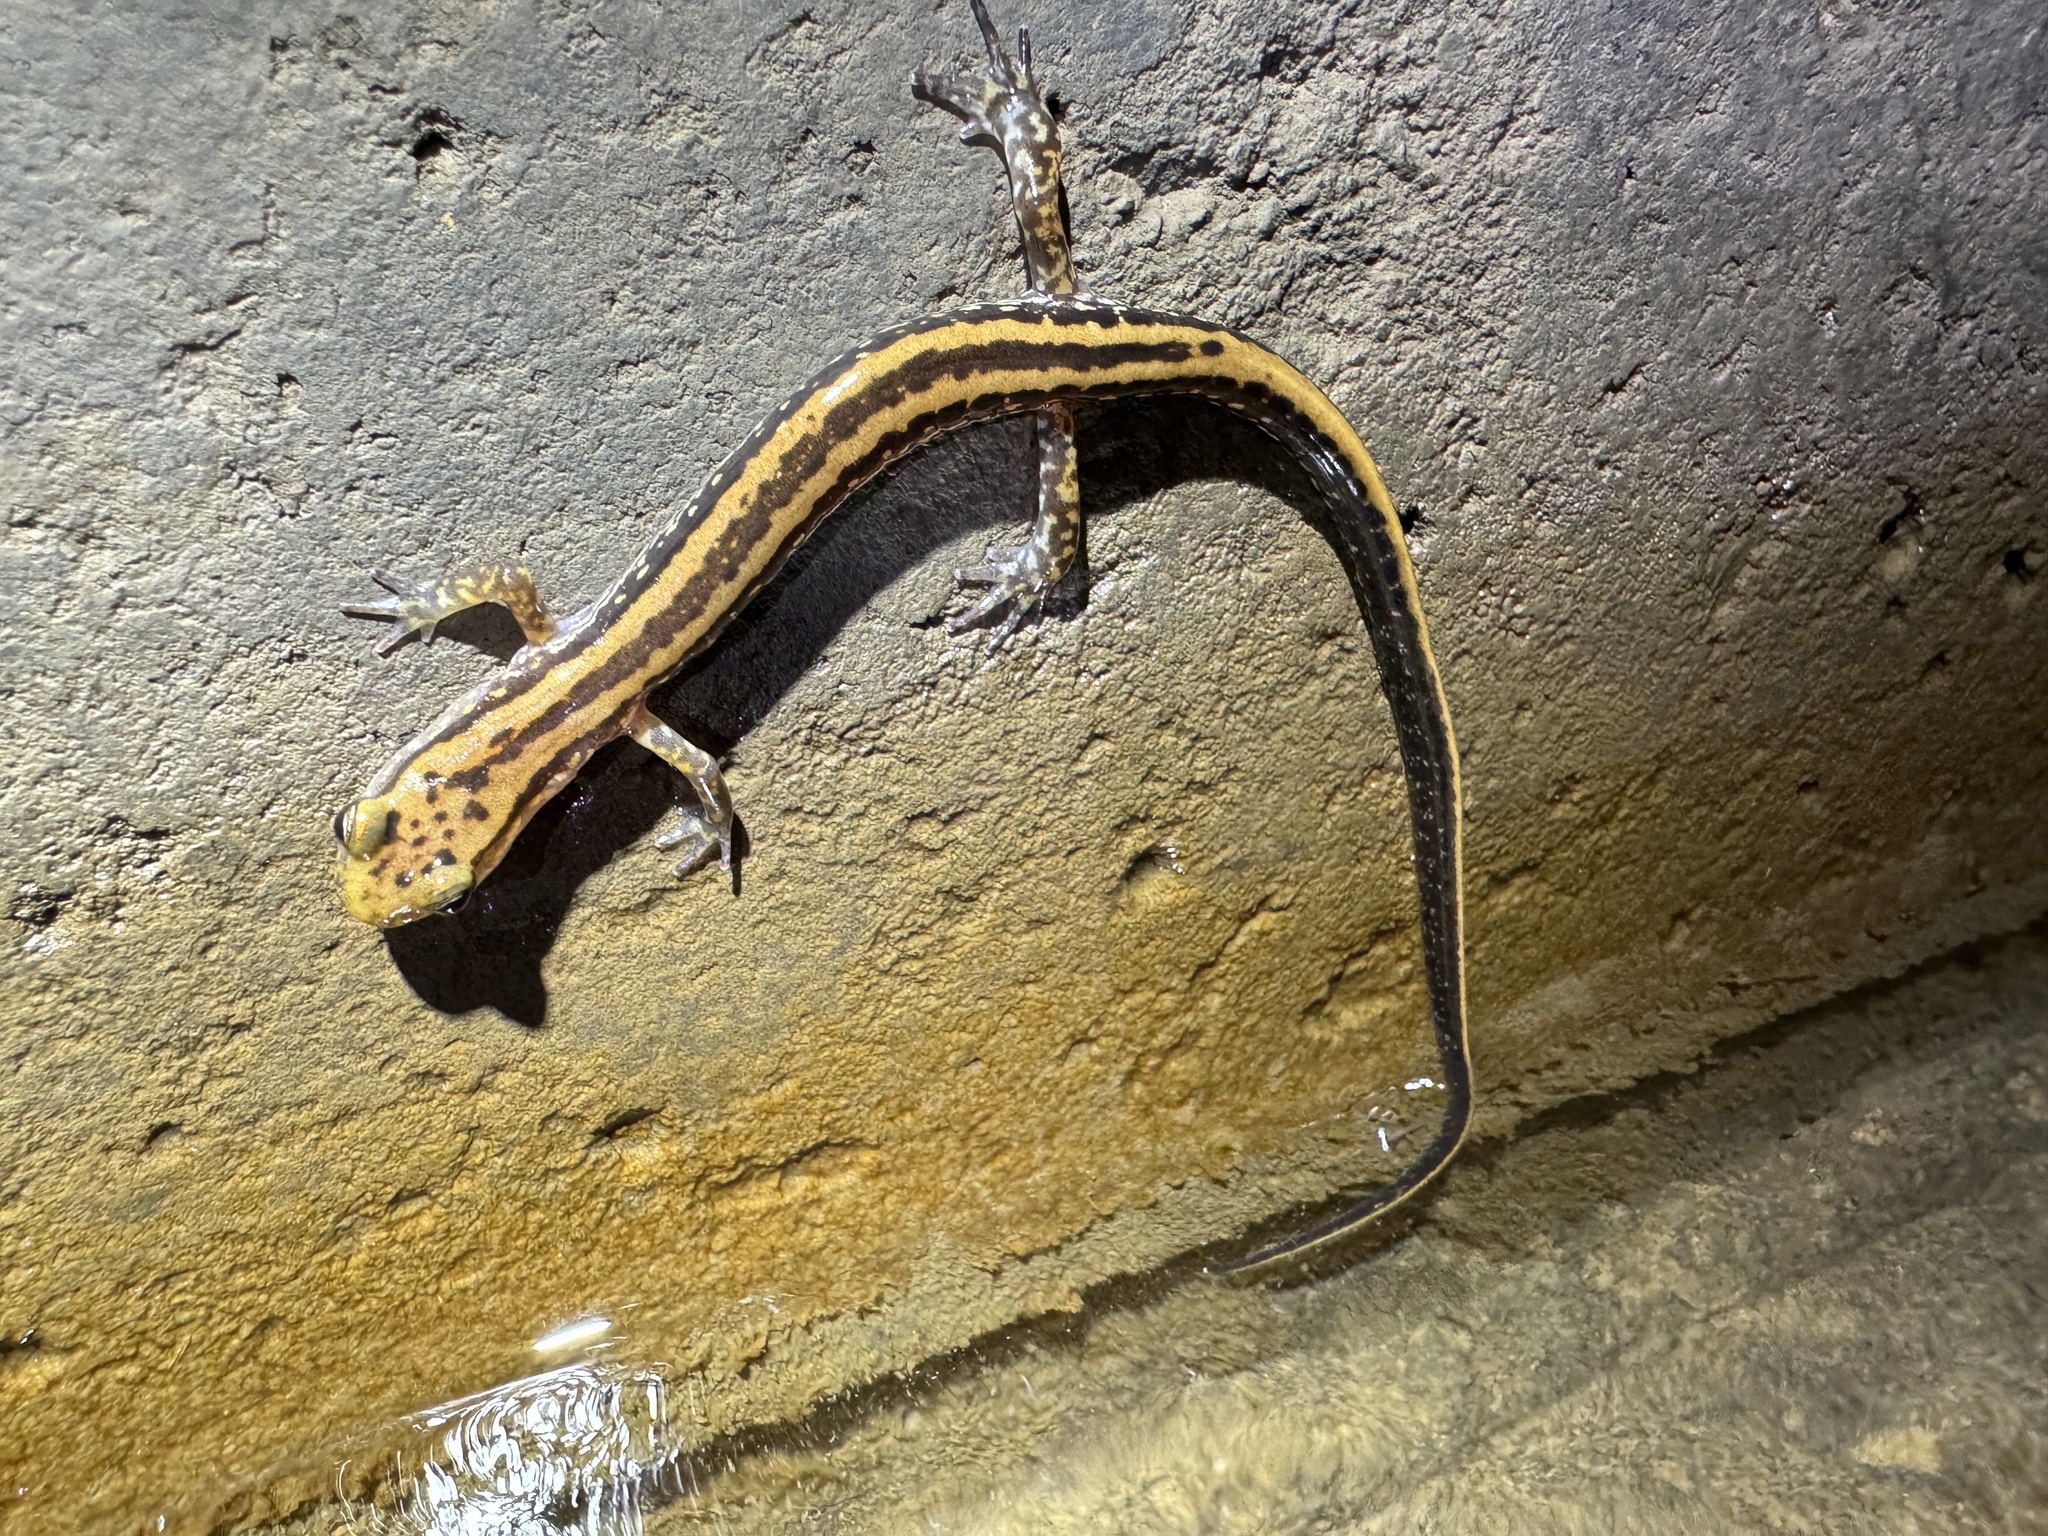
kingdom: Animalia
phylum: Chordata
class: Amphibia
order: Caudata
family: Plethodontidae
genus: Eurycea
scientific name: Eurycea guttolineata
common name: Three-lined salamander
